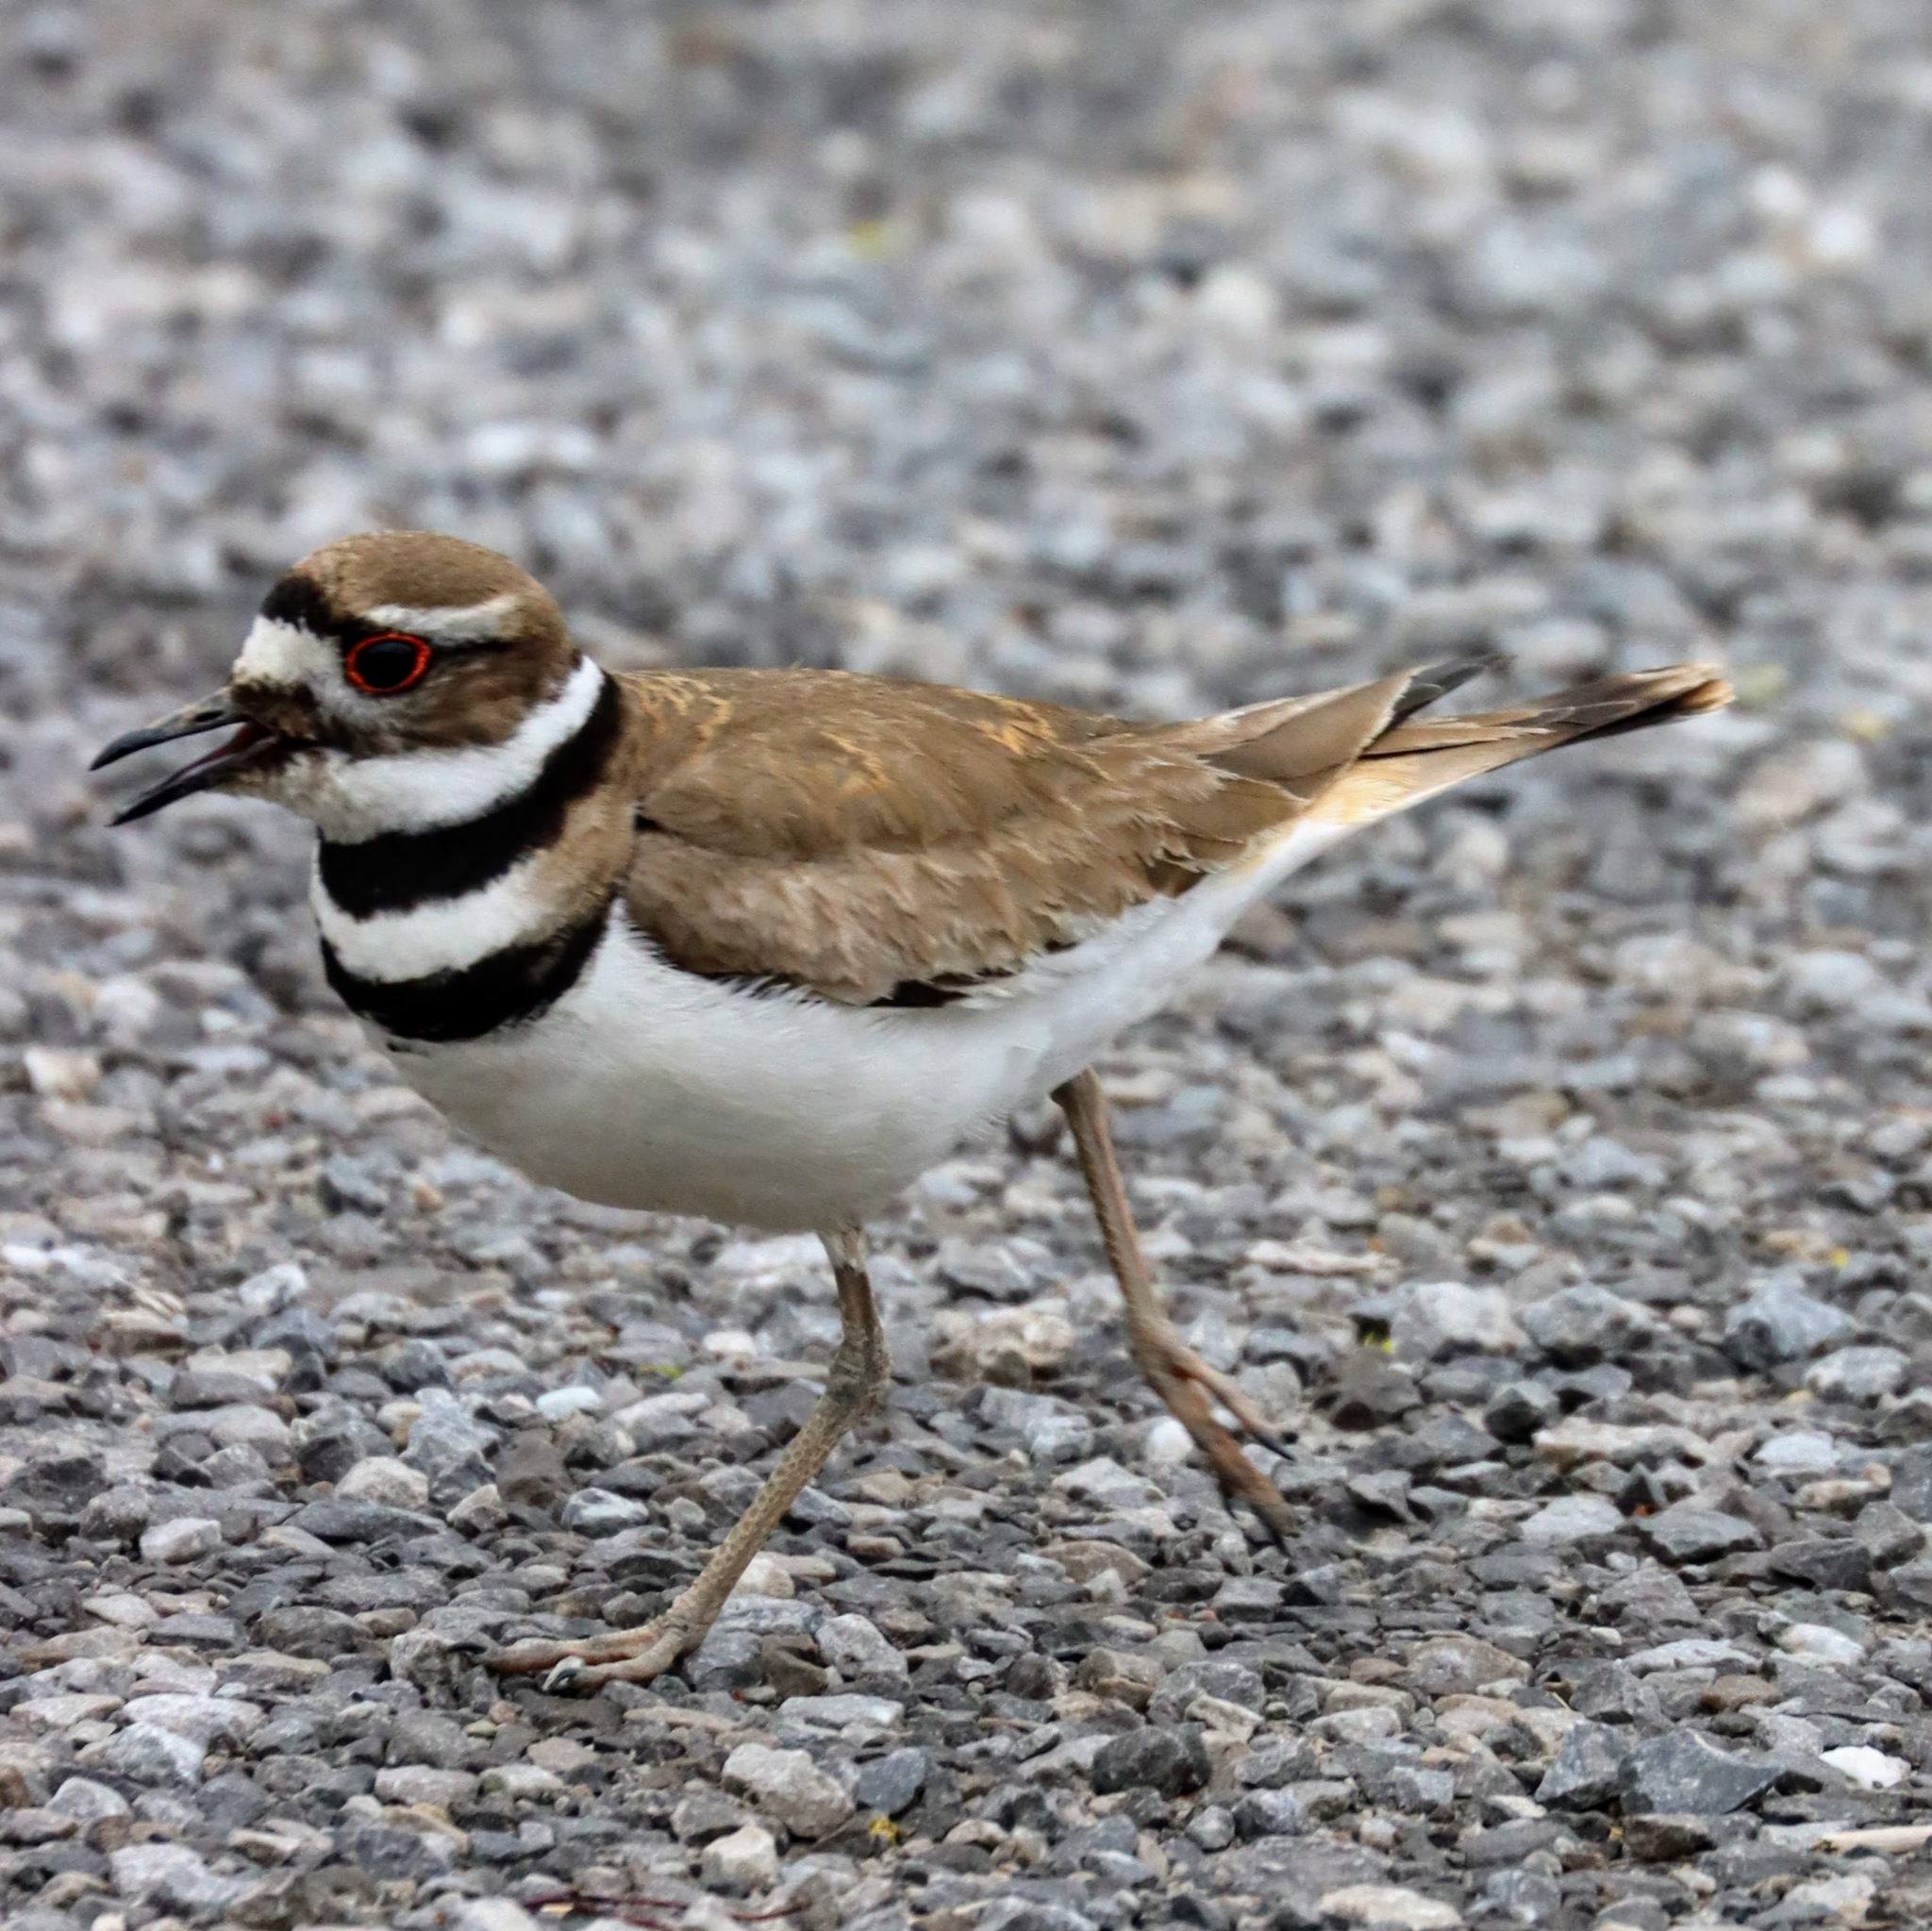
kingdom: Animalia
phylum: Chordata
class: Aves
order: Charadriiformes
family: Charadriidae
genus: Charadrius
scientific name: Charadrius vociferus
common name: Killdeer
